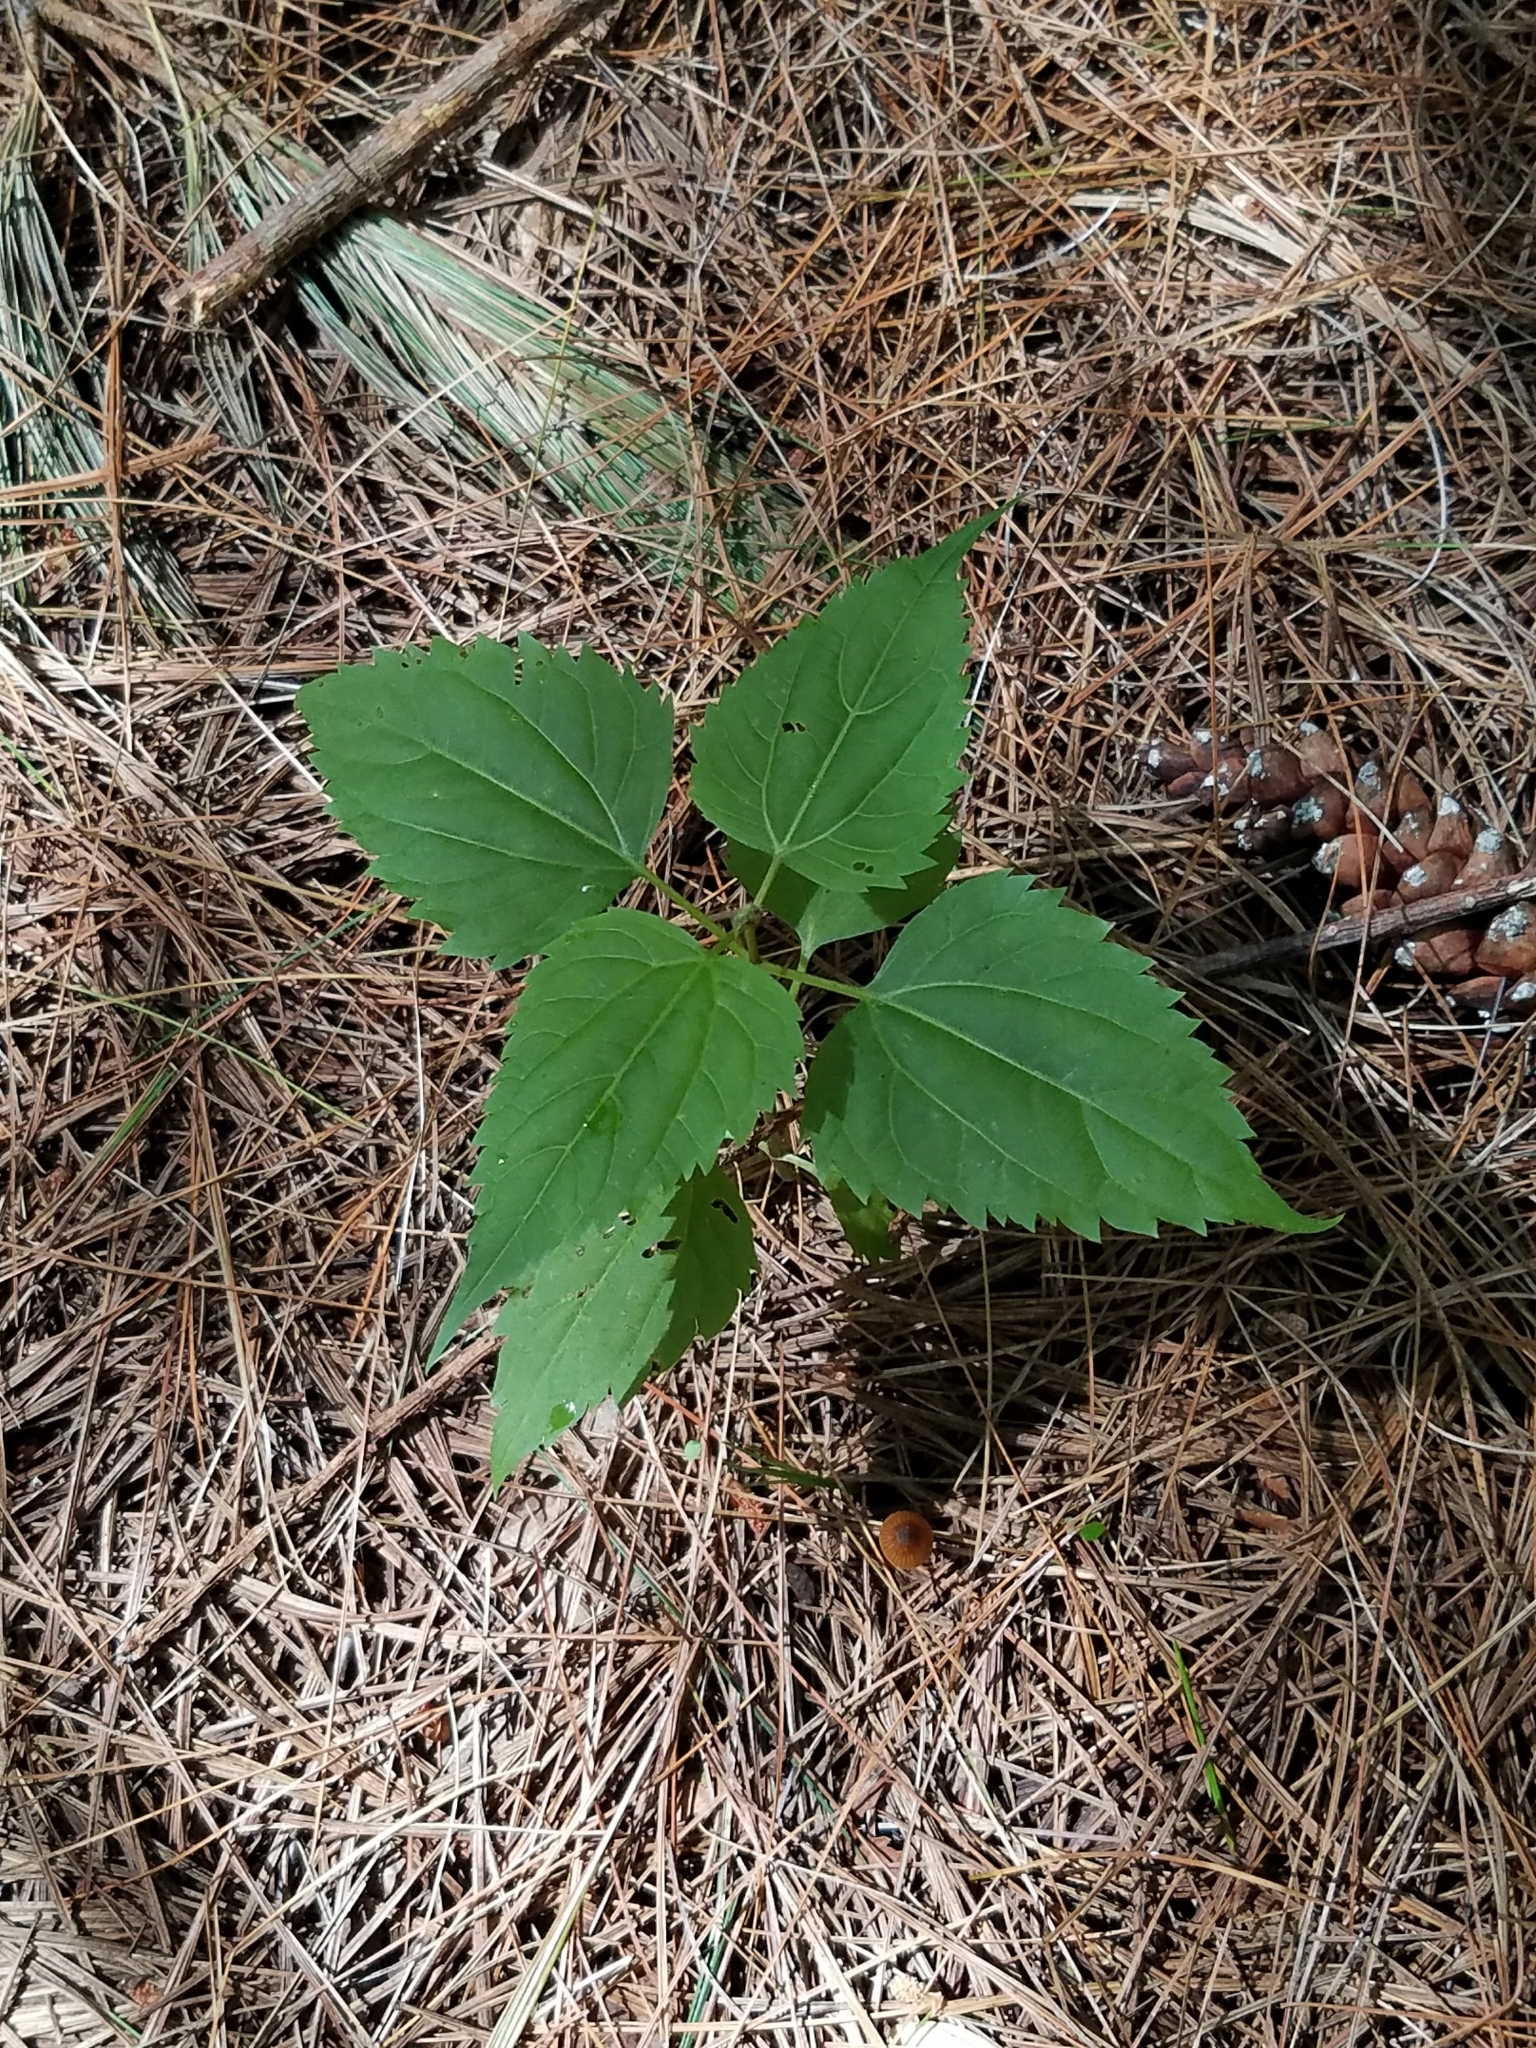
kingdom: Plantae
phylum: Tracheophyta
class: Magnoliopsida
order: Asterales
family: Asteraceae
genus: Ageratina
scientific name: Ageratina altissima
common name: White snakeroot
